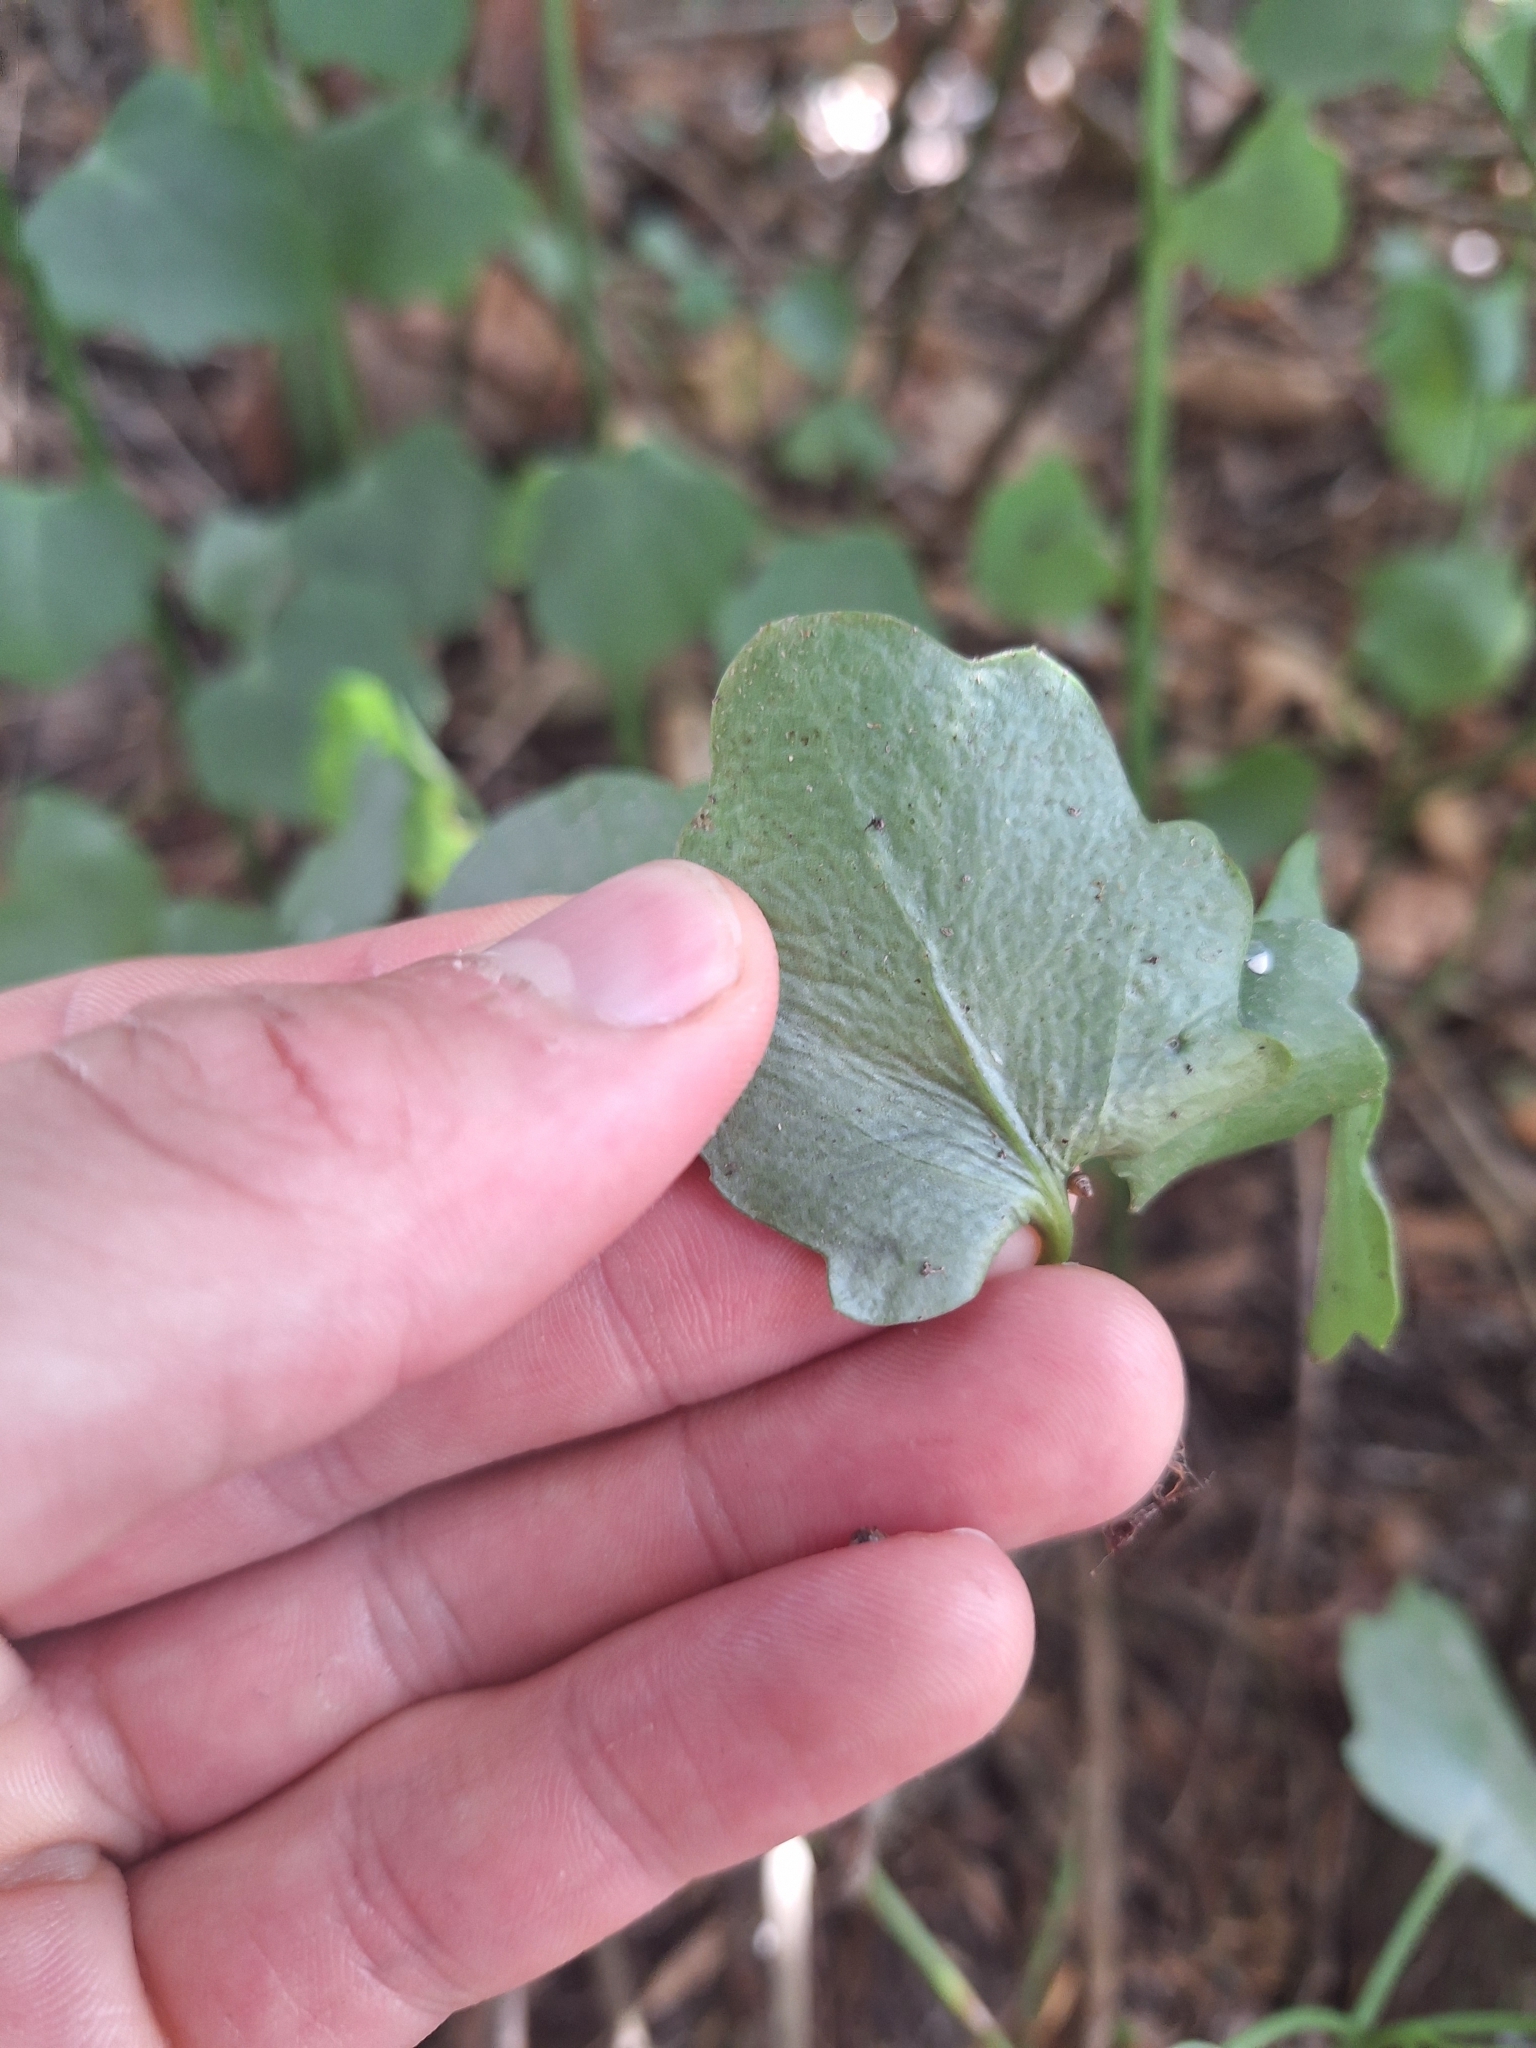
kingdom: Plantae
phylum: Tracheophyta
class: Magnoliopsida
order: Asterales
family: Asteraceae
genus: Senecio
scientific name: Senecio angulatus
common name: Climbing groundsel
